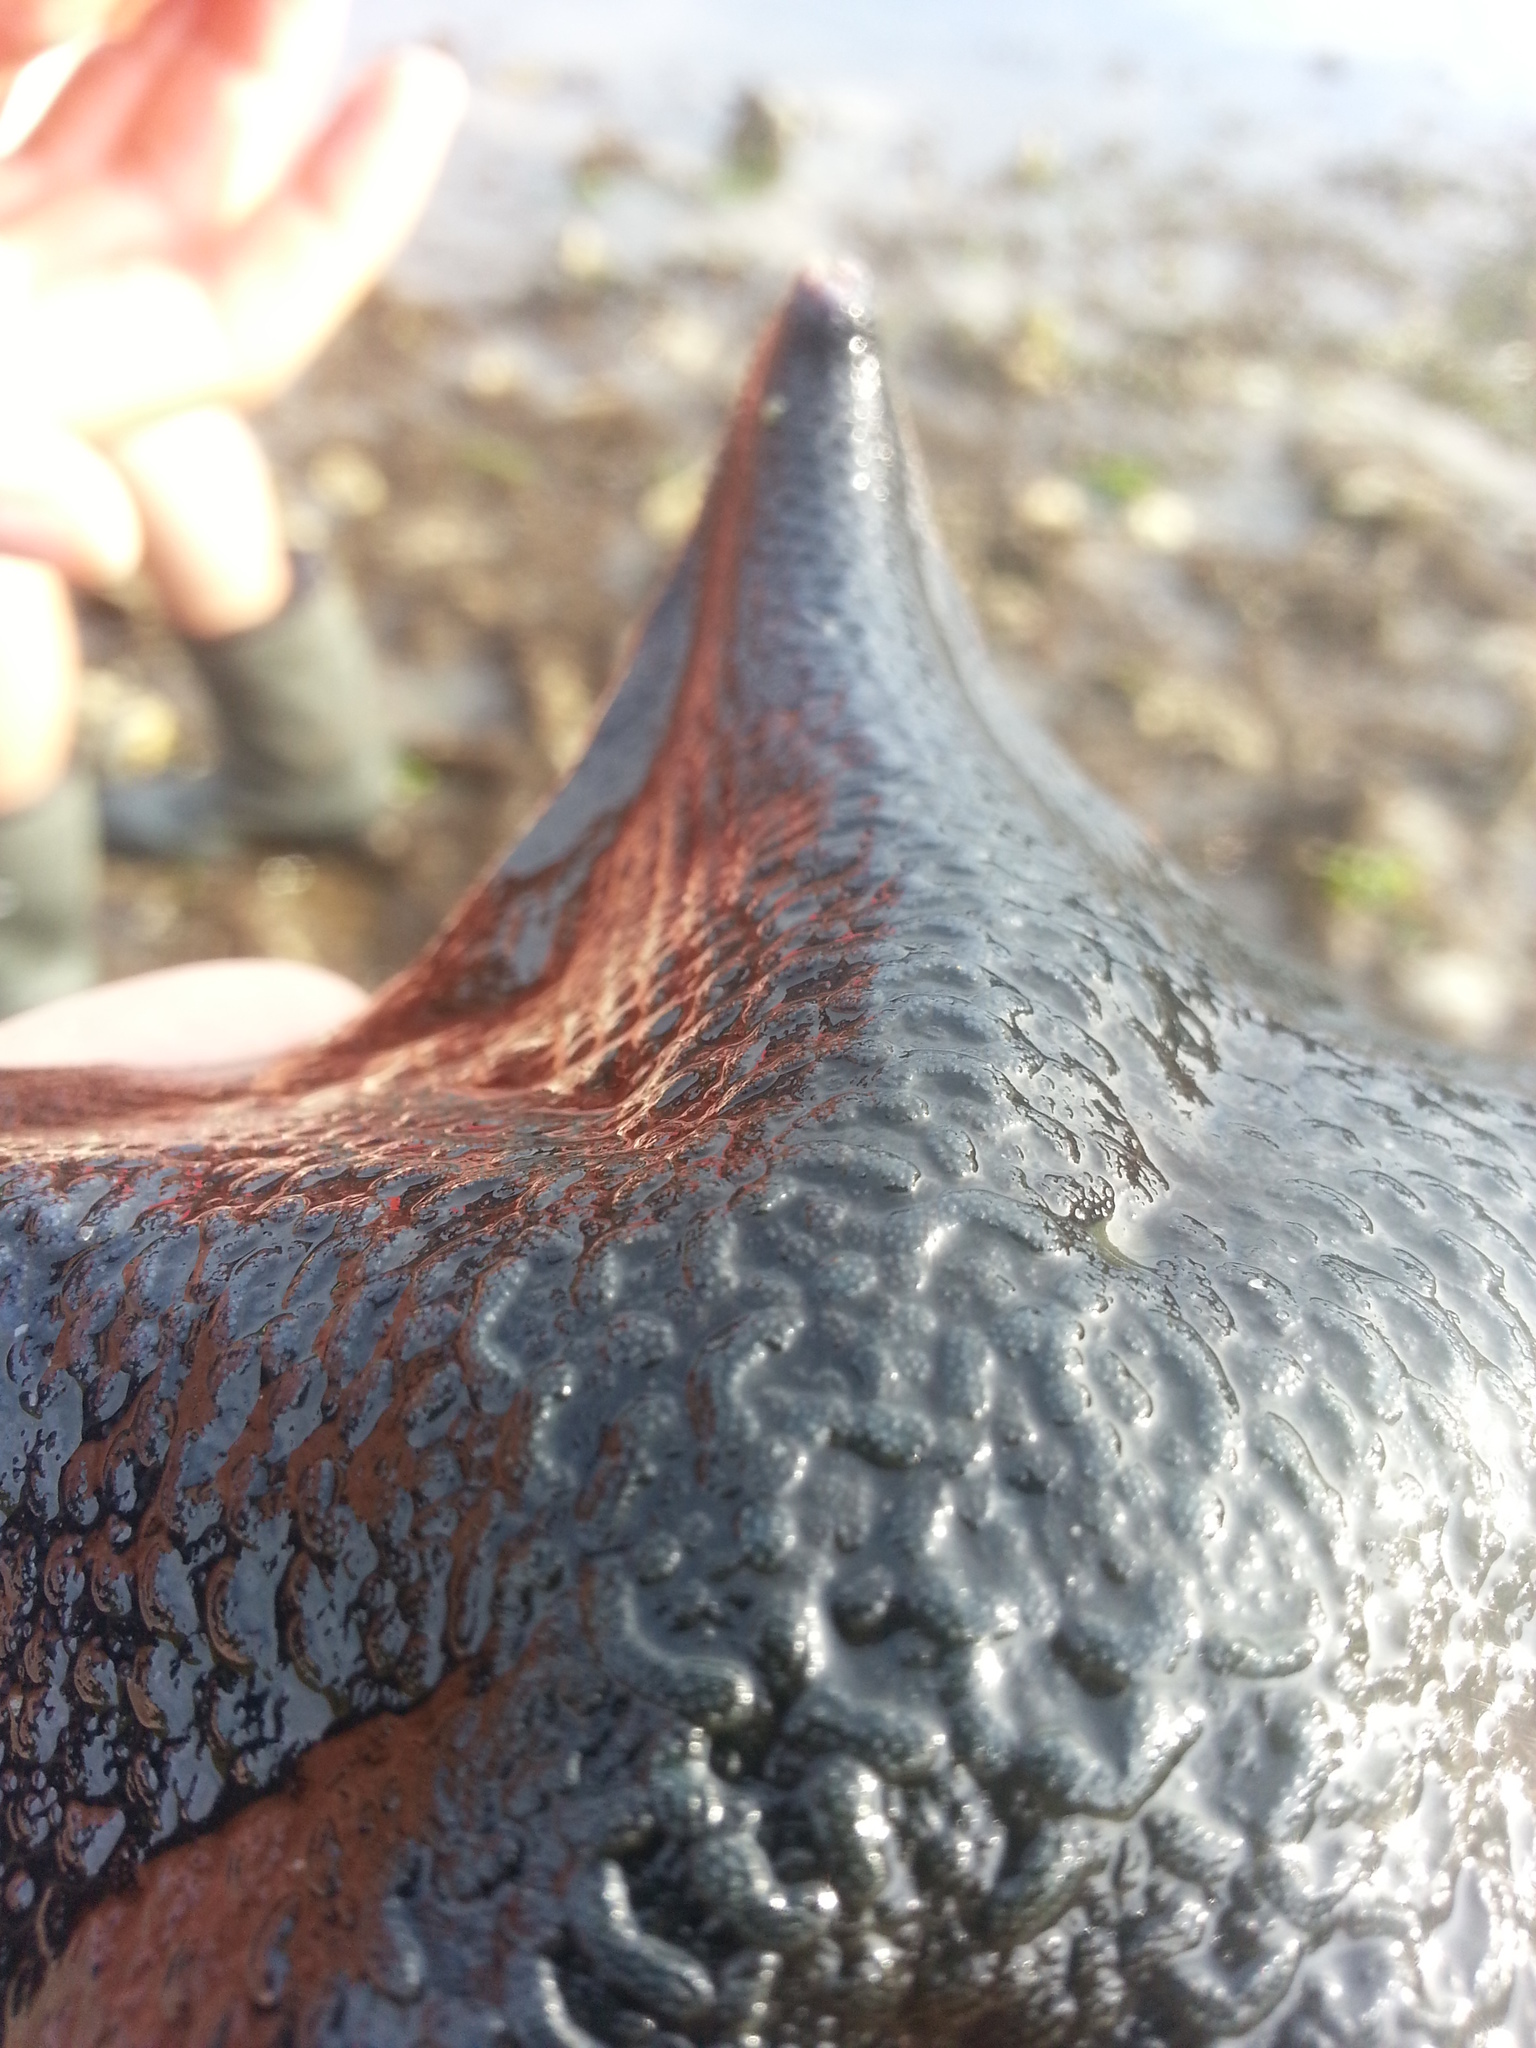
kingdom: Animalia
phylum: Echinodermata
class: Asteroidea
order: Valvatida
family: Asterinidae
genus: Patiria
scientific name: Patiria miniata
